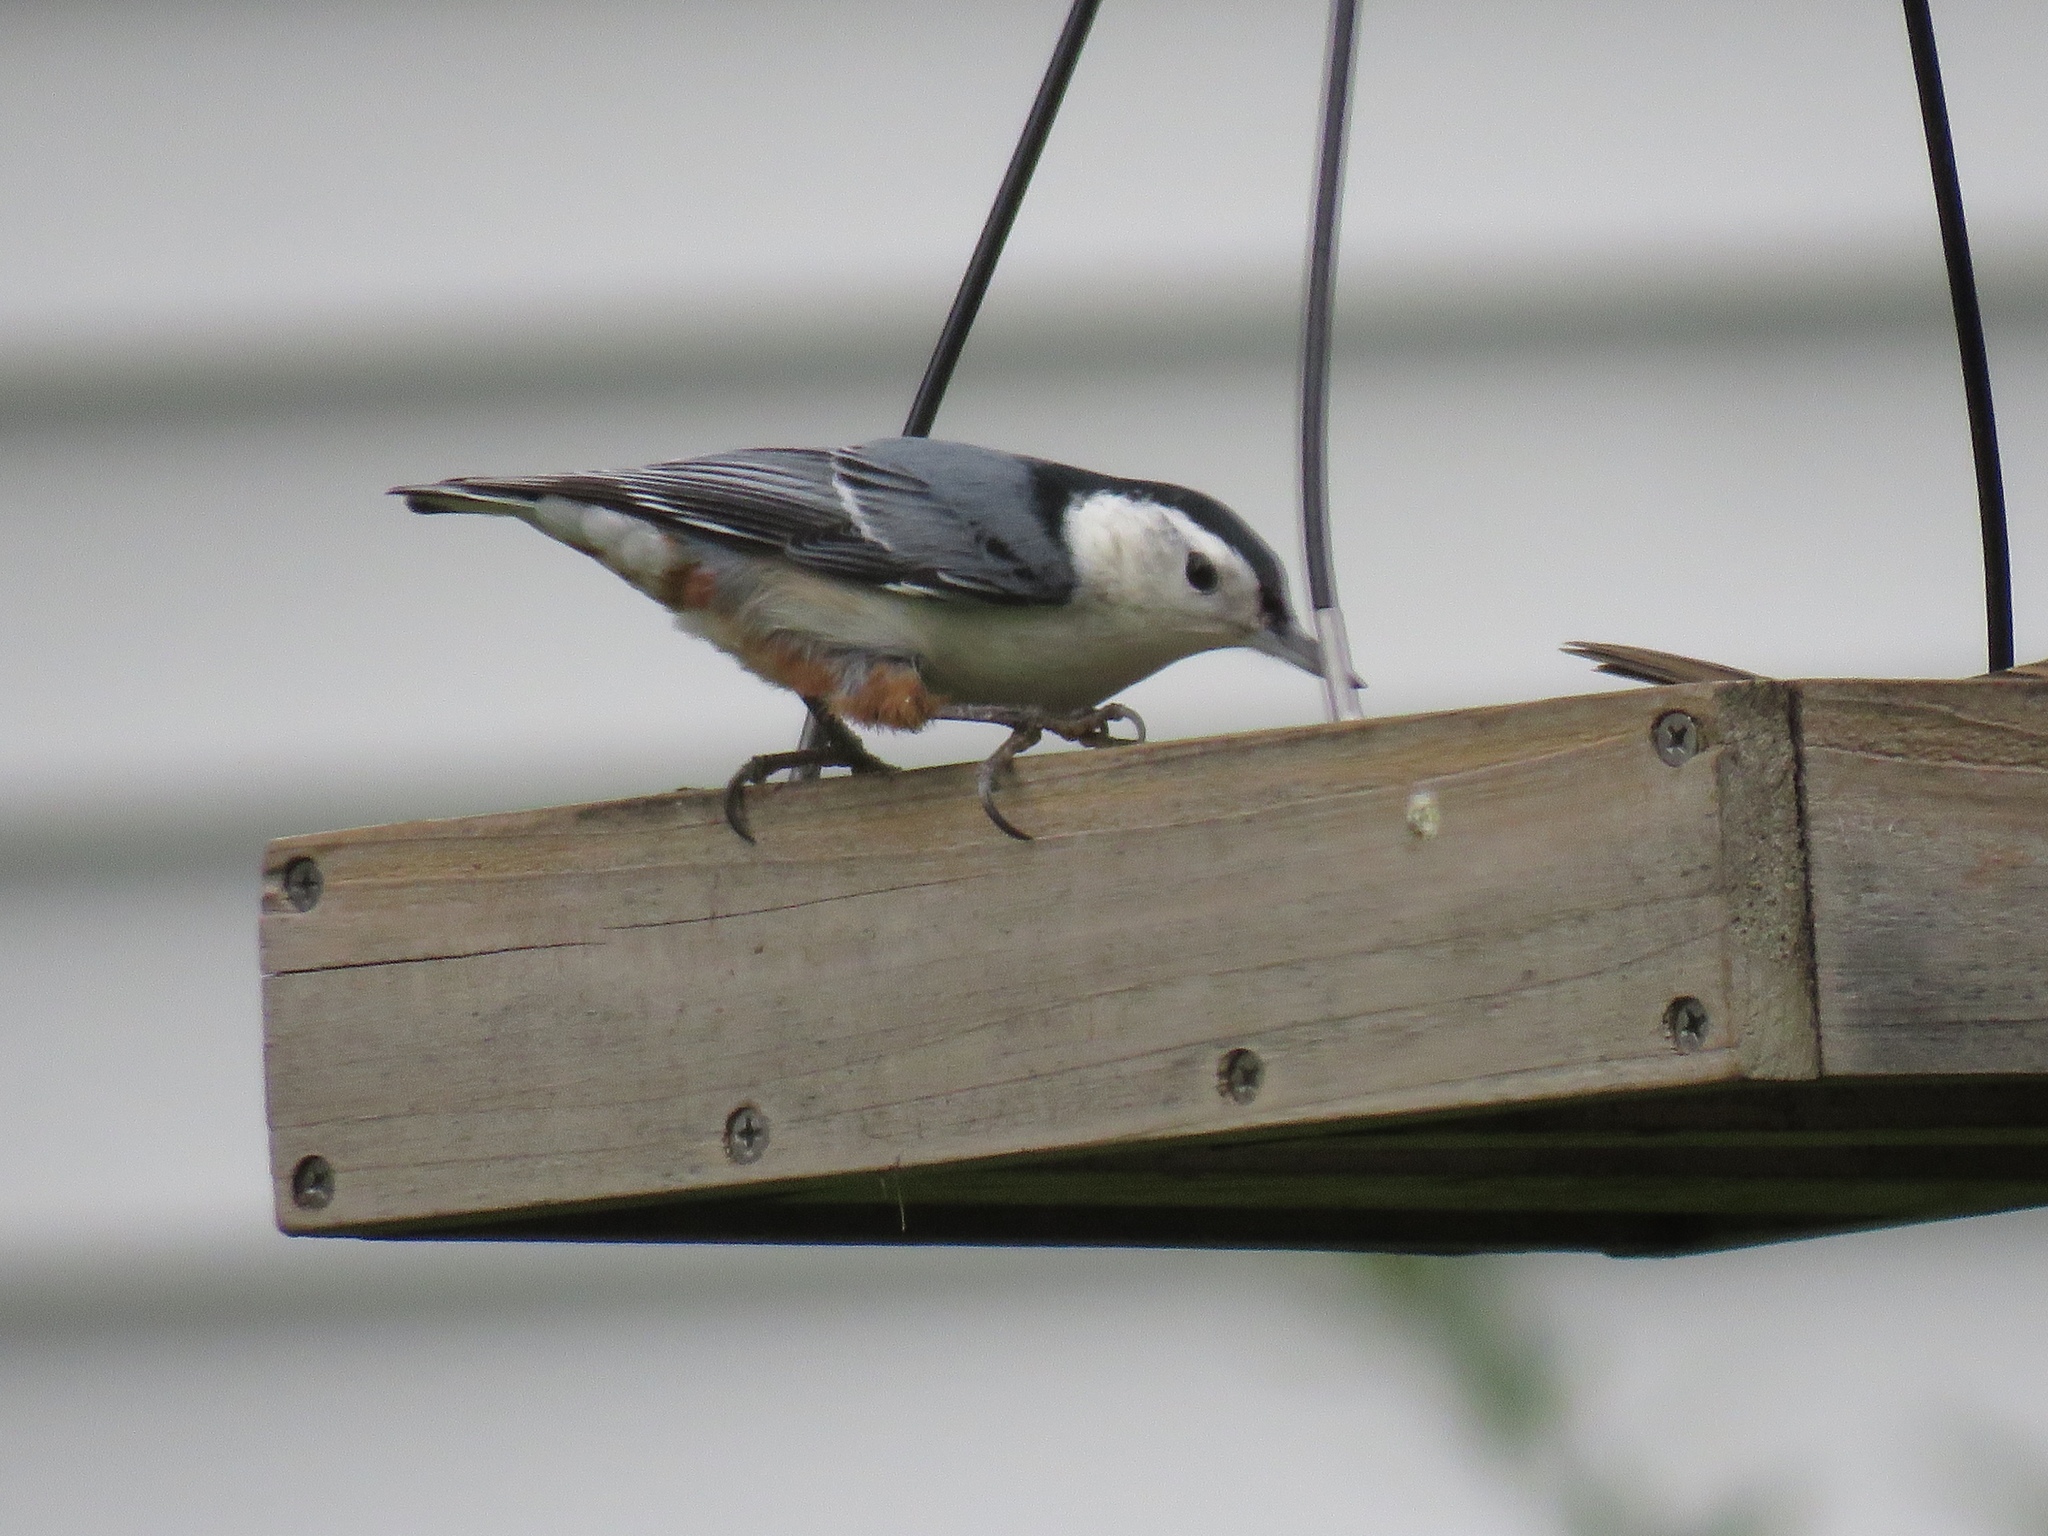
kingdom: Animalia
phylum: Chordata
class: Aves
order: Passeriformes
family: Sittidae
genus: Sitta
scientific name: Sitta carolinensis
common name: White-breasted nuthatch
